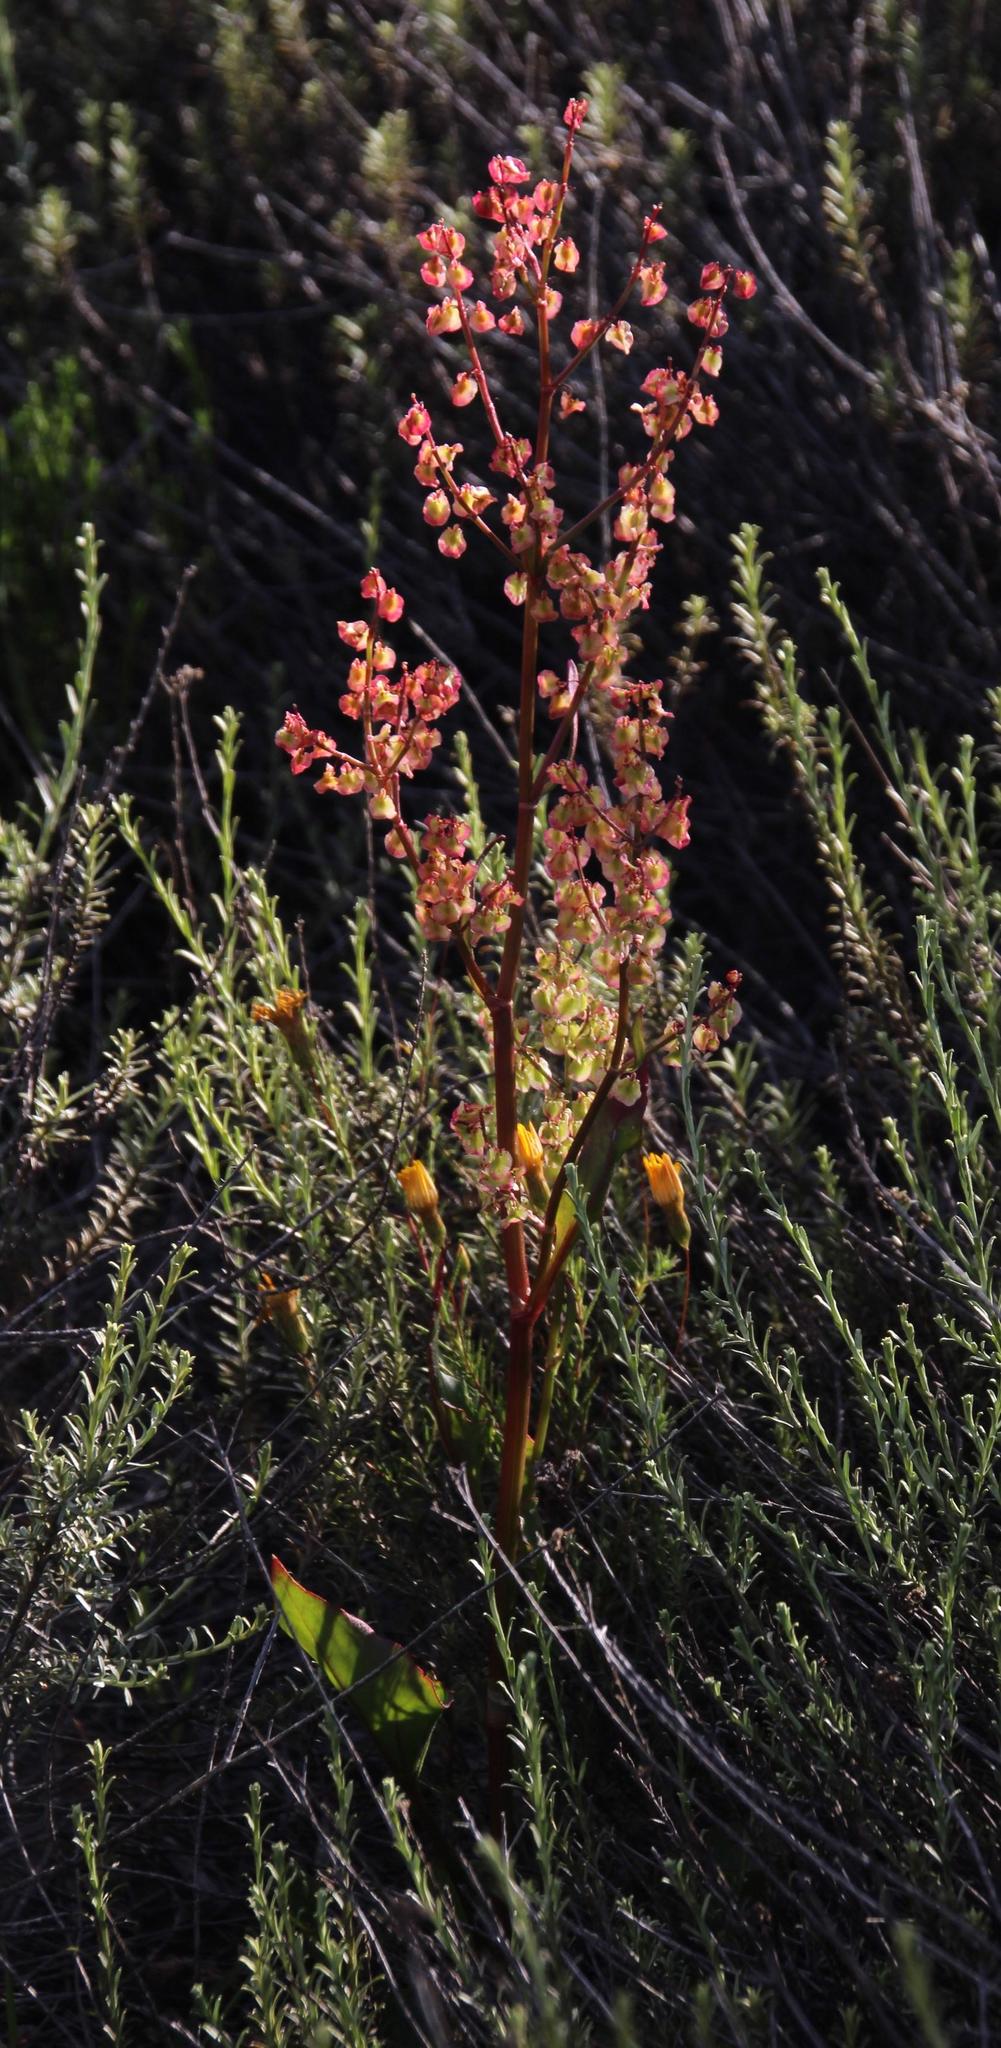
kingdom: Plantae
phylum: Tracheophyta
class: Magnoliopsida
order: Caryophyllales
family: Polygonaceae
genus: Rumex
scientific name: Rumex acetosella
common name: Common sheep sorrel
